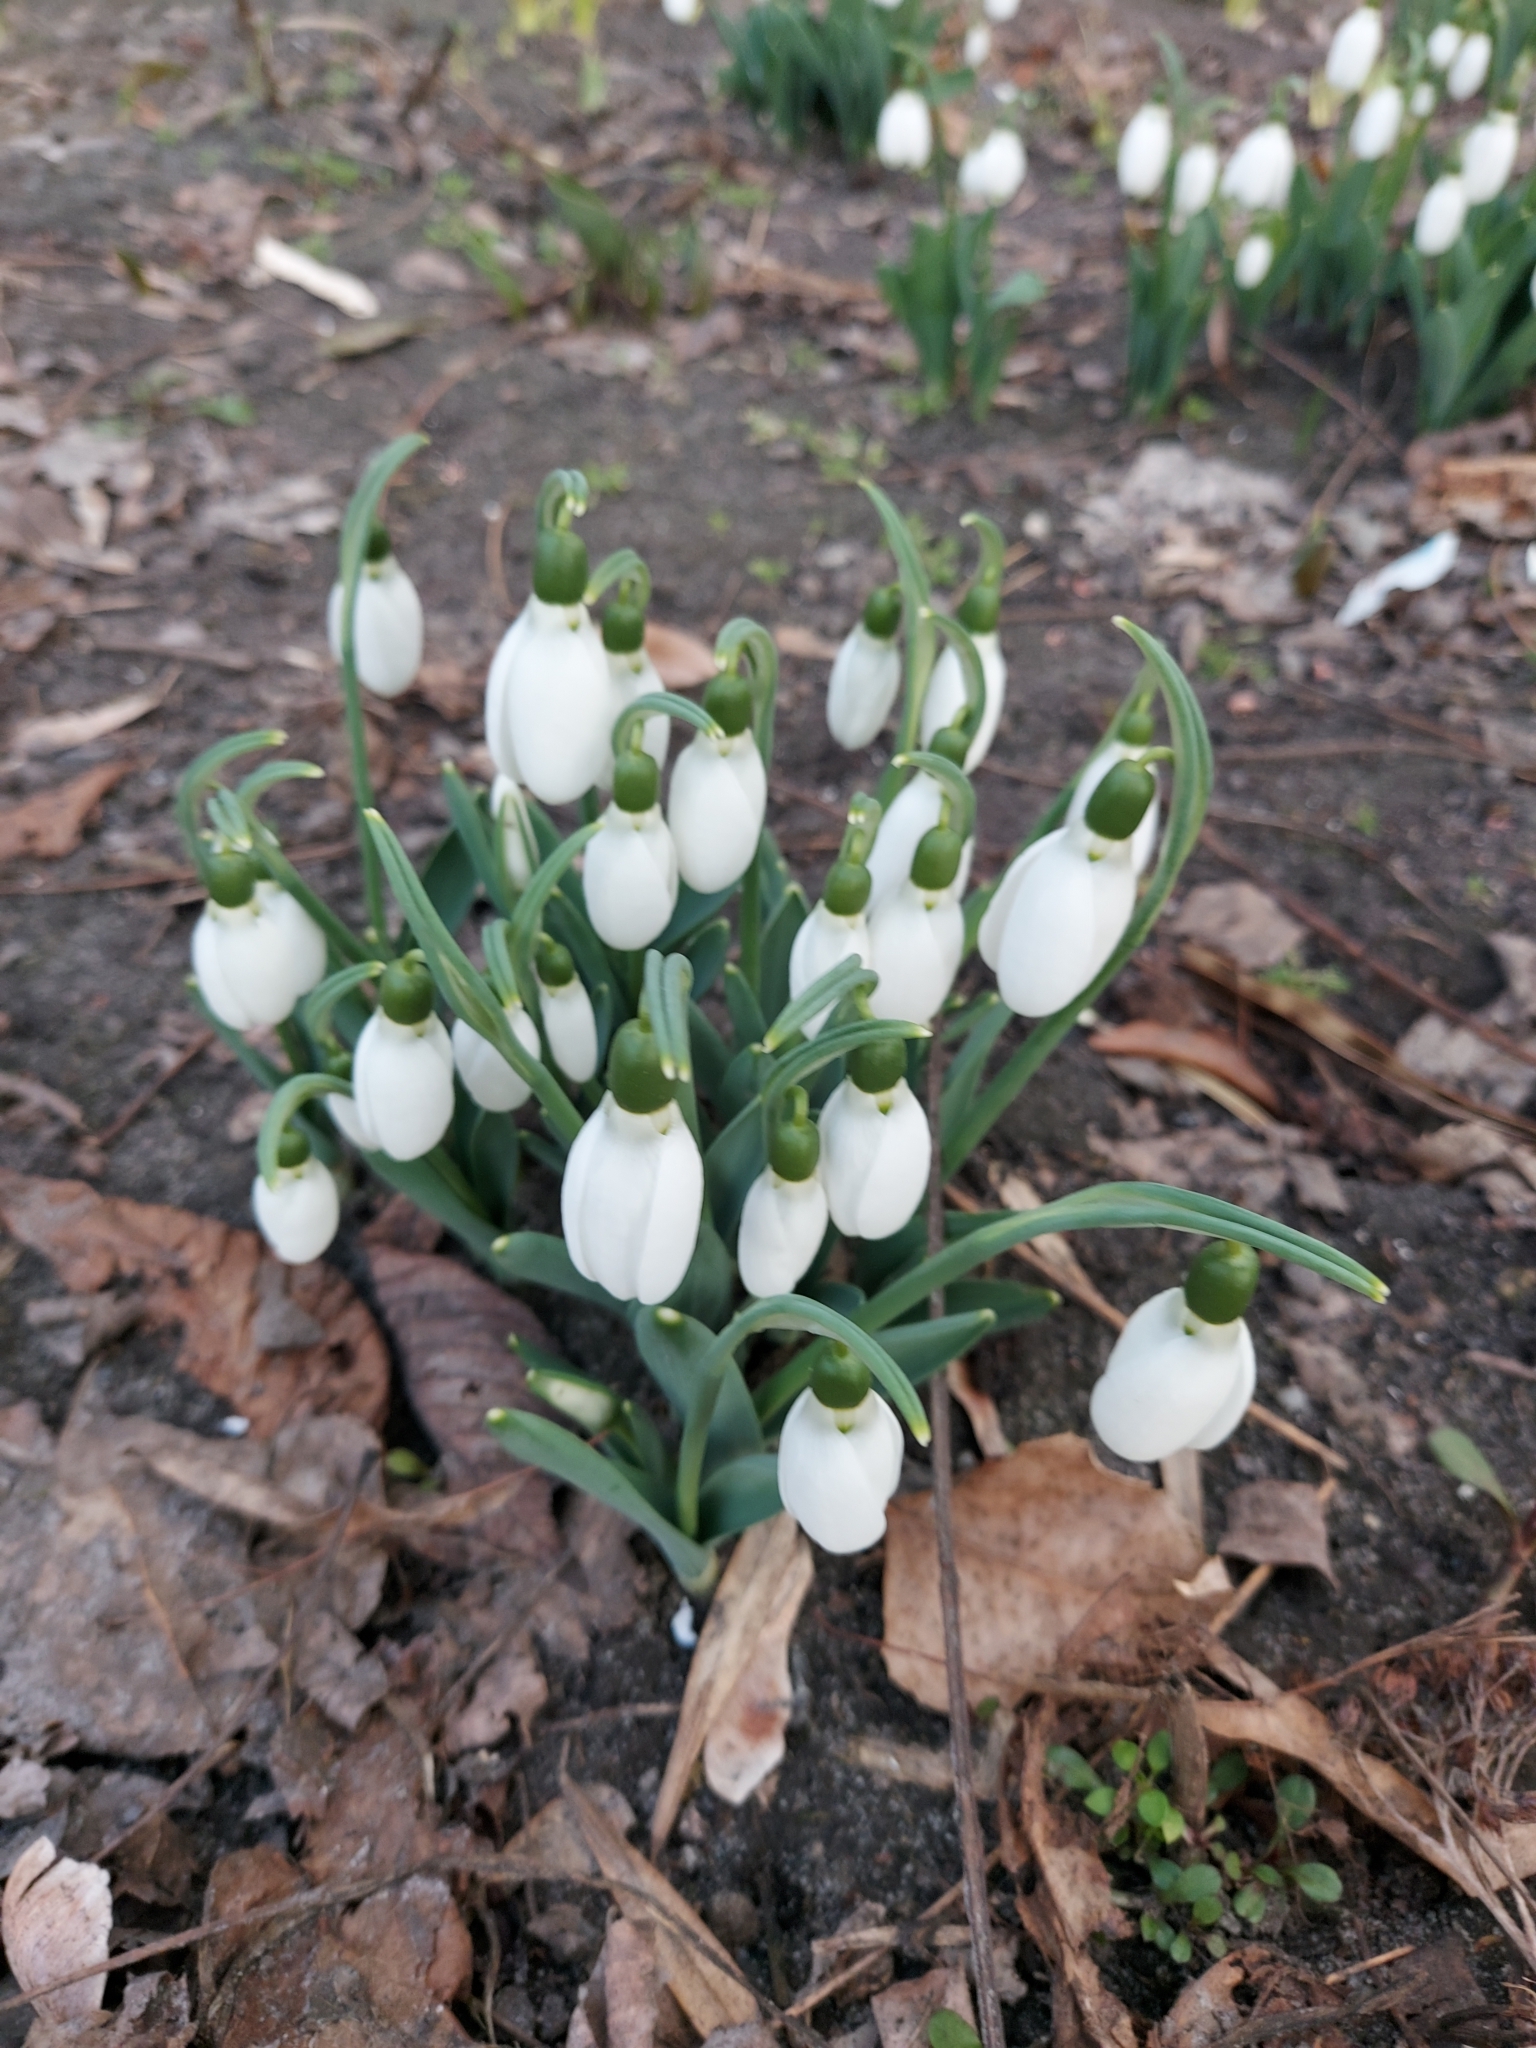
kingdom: Plantae
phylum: Tracheophyta
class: Liliopsida
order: Asparagales
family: Amaryllidaceae
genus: Galanthus
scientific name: Galanthus nivalis
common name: Snowdrop
